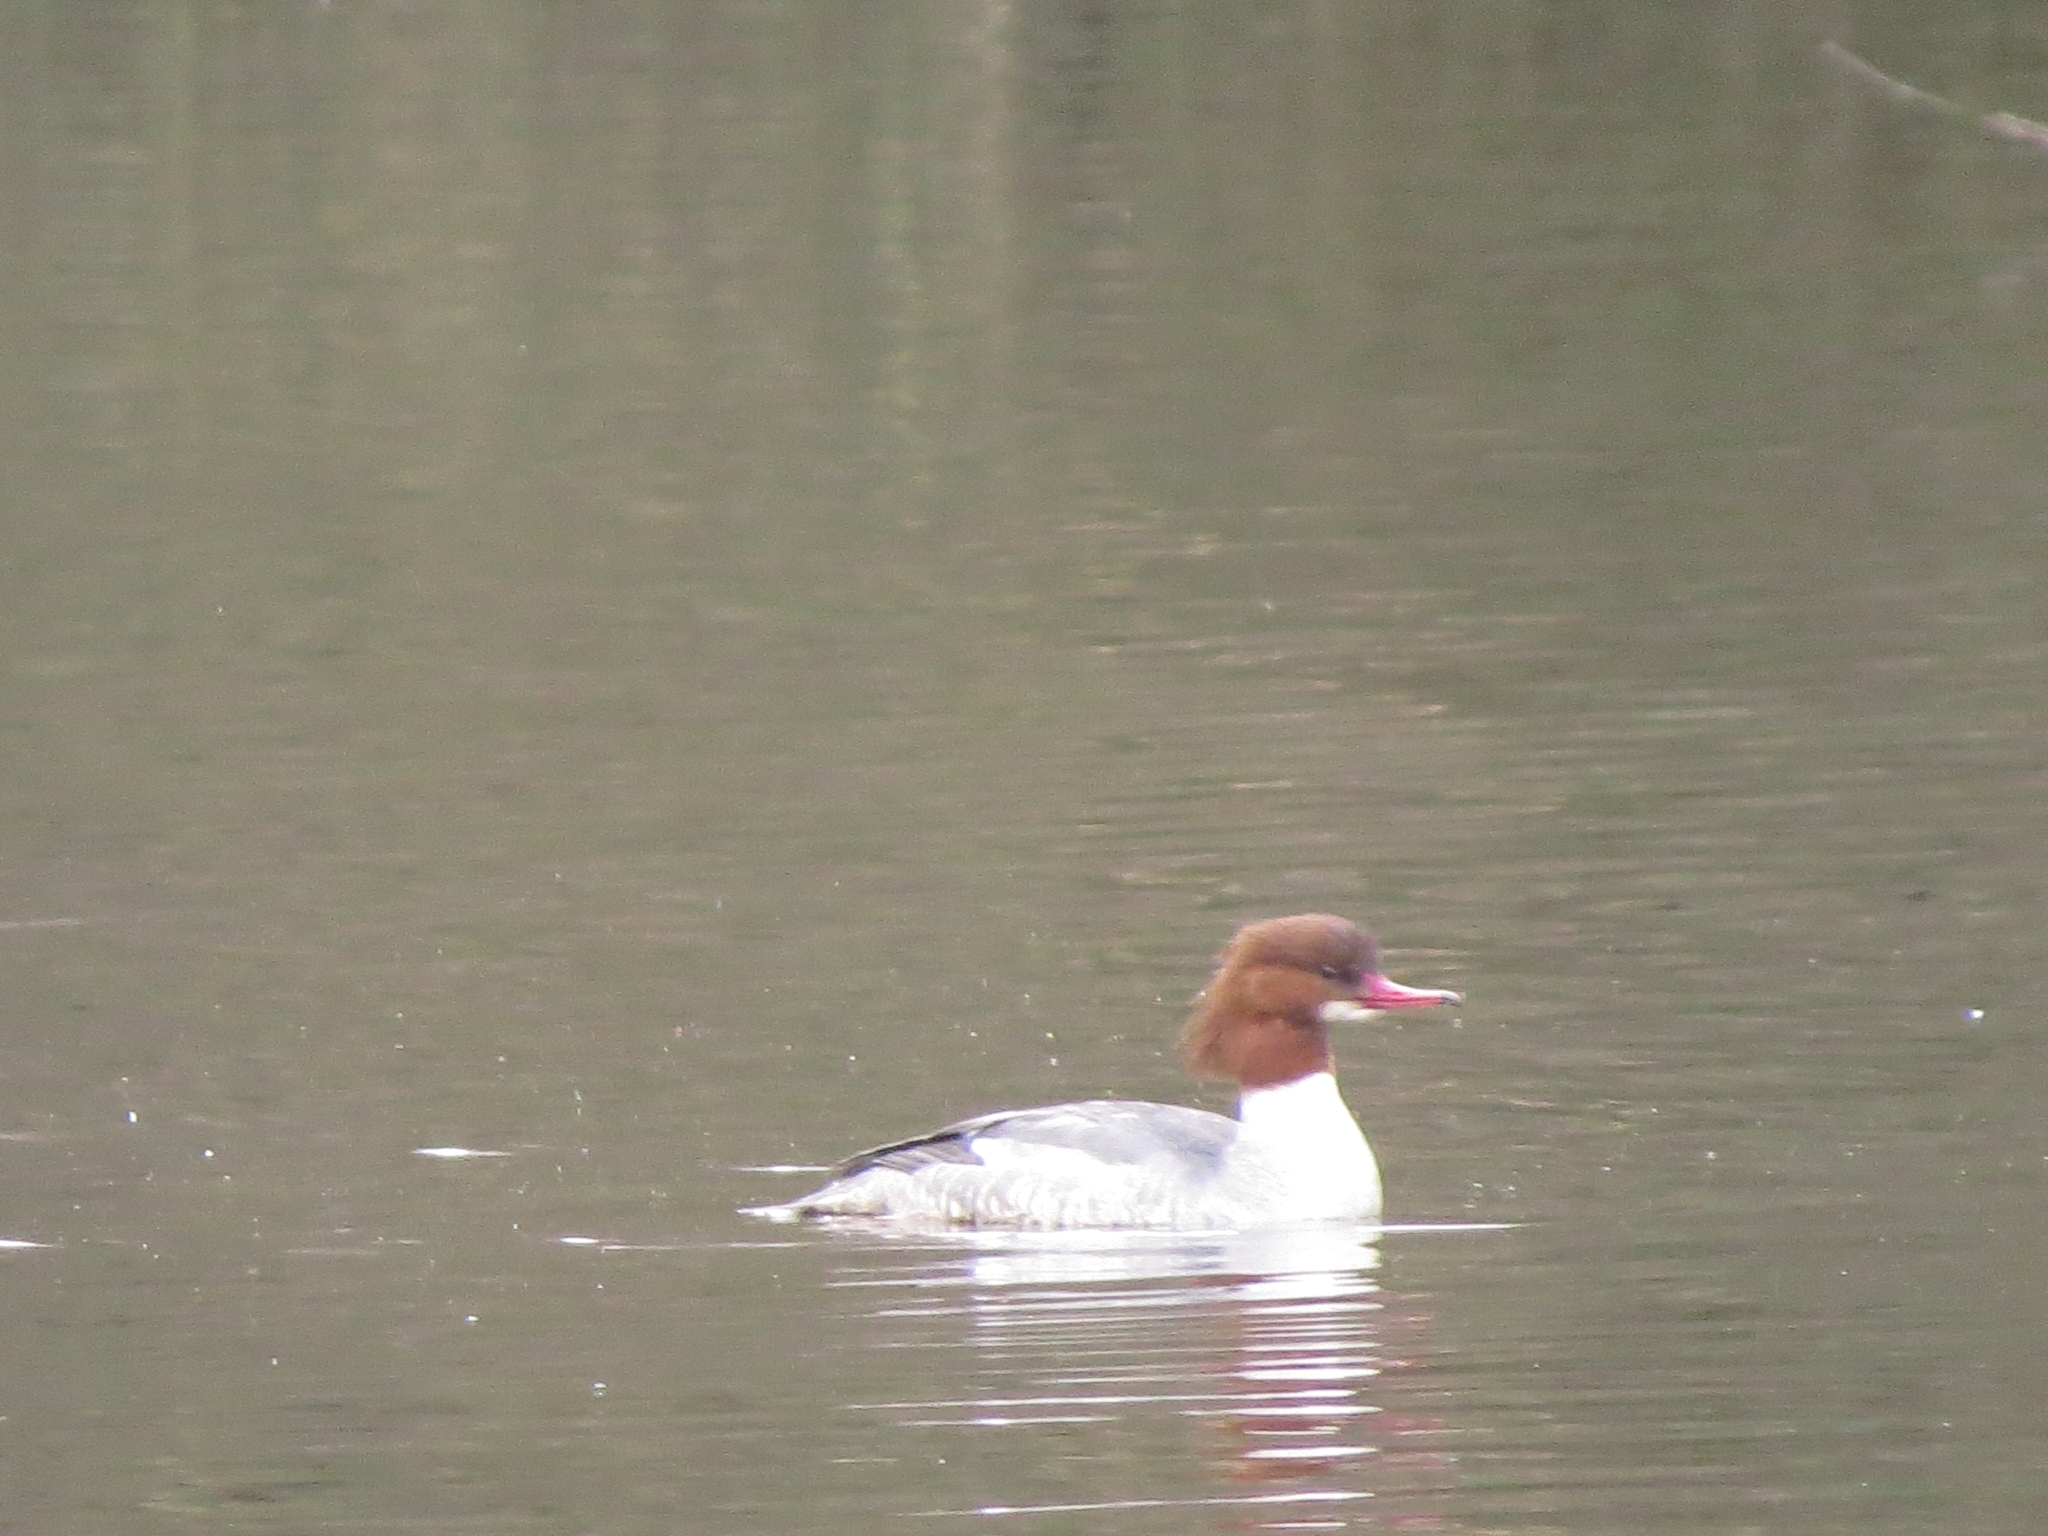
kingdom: Animalia
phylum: Chordata
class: Aves
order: Anseriformes
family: Anatidae
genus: Mergus
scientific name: Mergus merganser
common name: Common merganser
